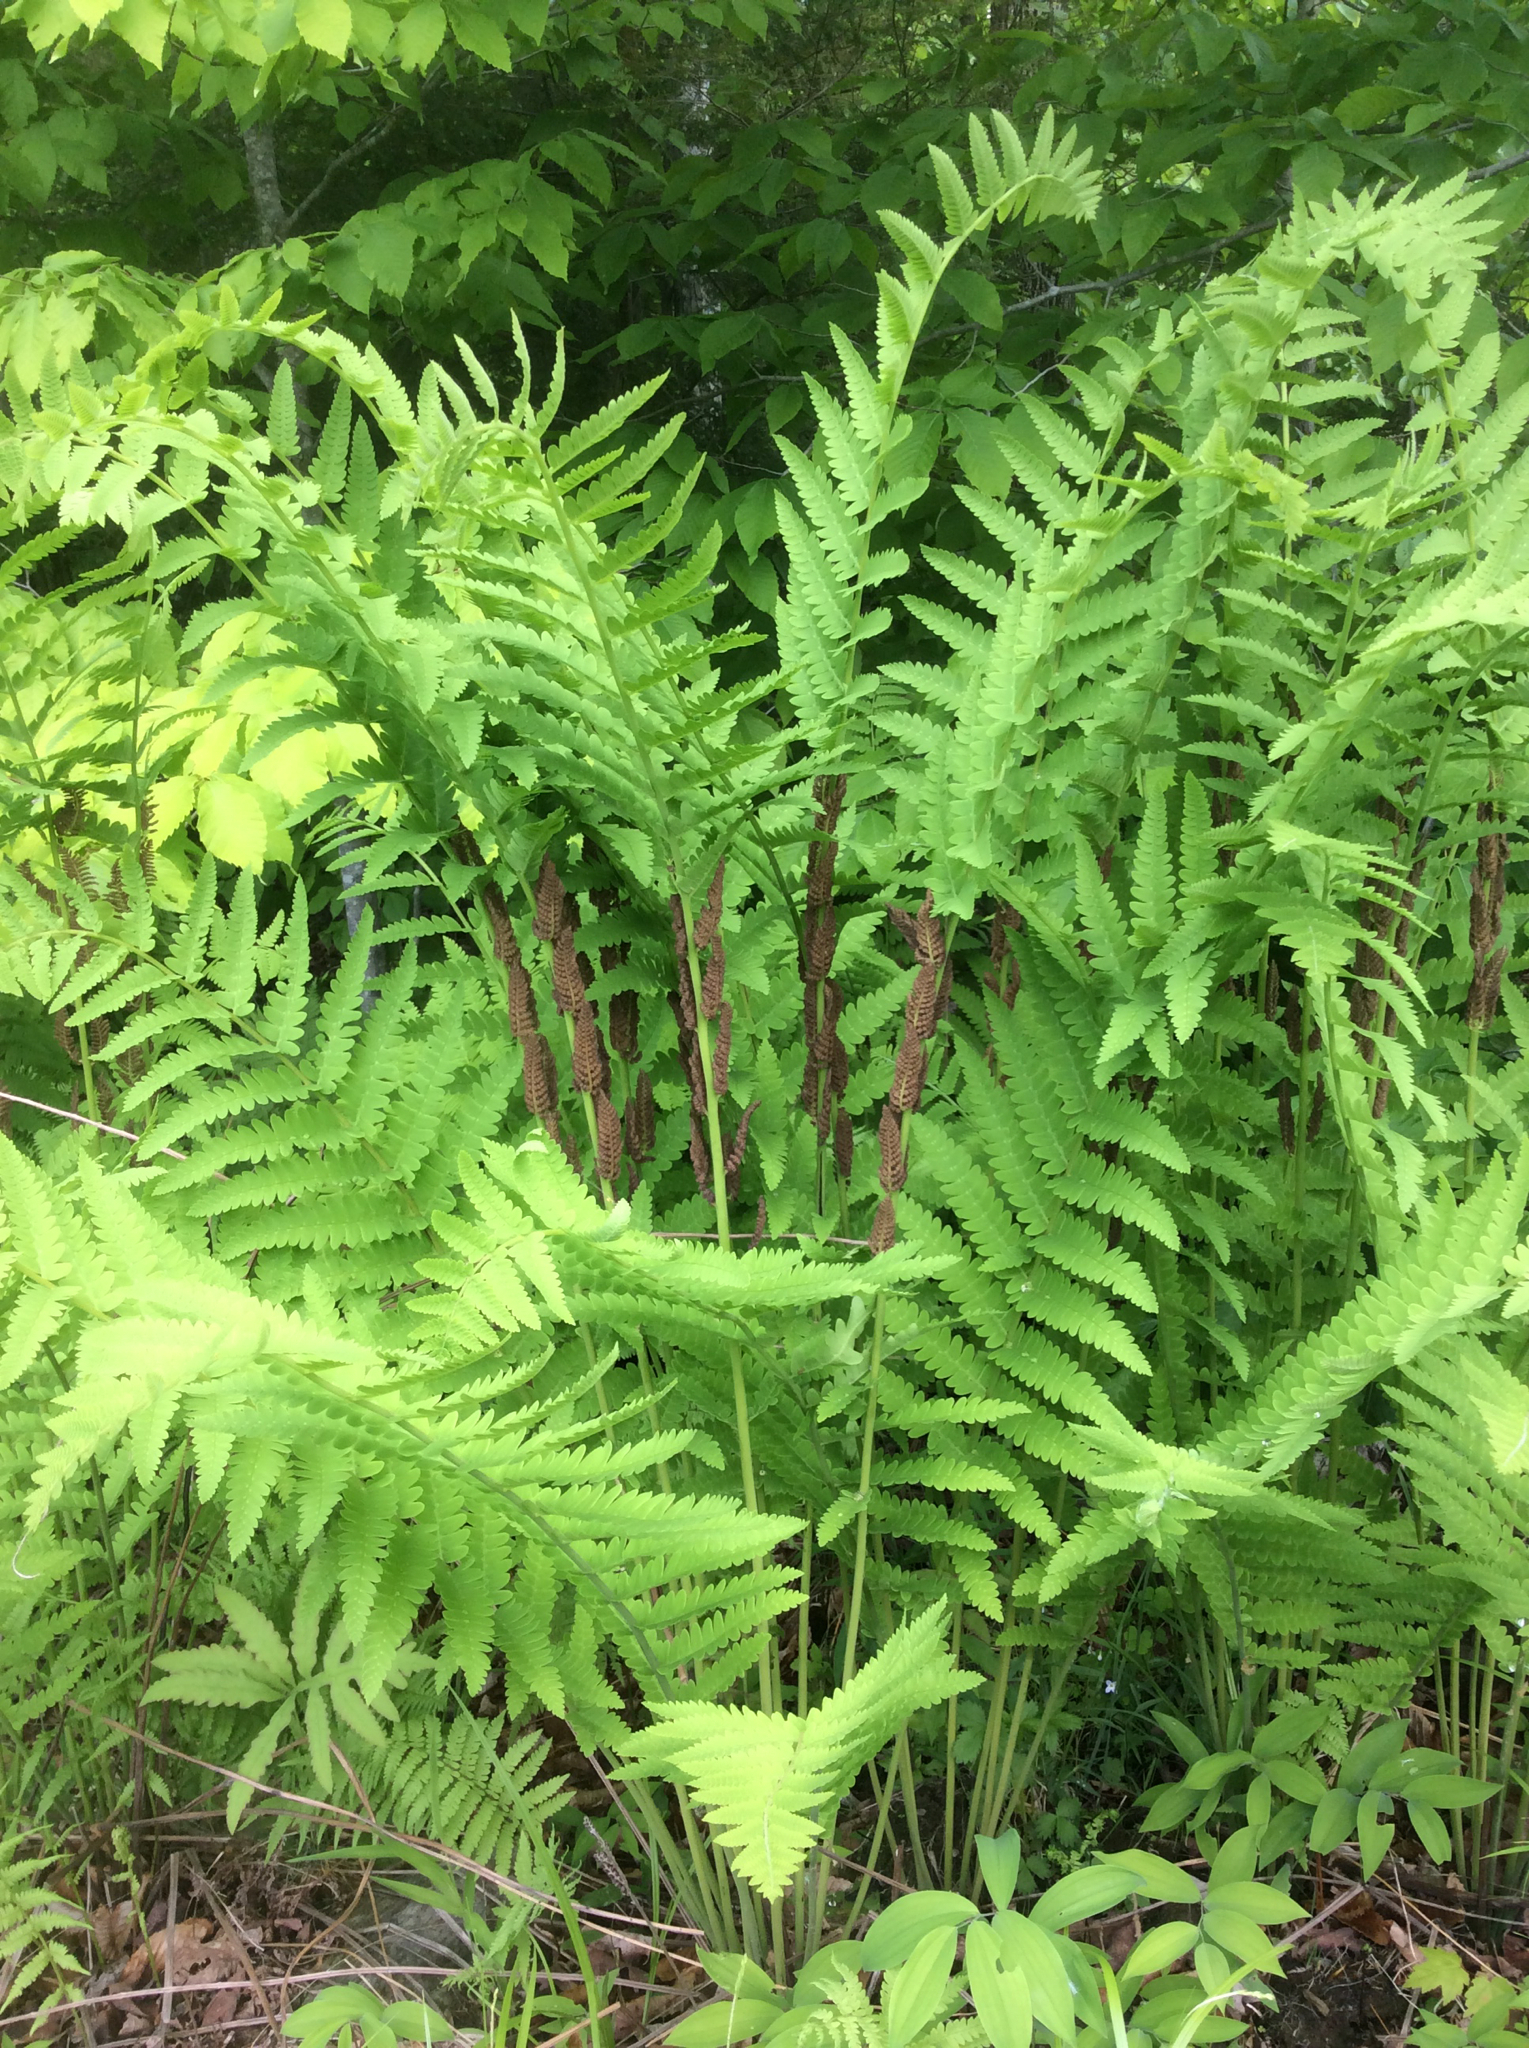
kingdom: Plantae
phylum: Tracheophyta
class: Polypodiopsida
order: Osmundales
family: Osmundaceae
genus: Claytosmunda
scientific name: Claytosmunda claytoniana
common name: Clayton's fern
